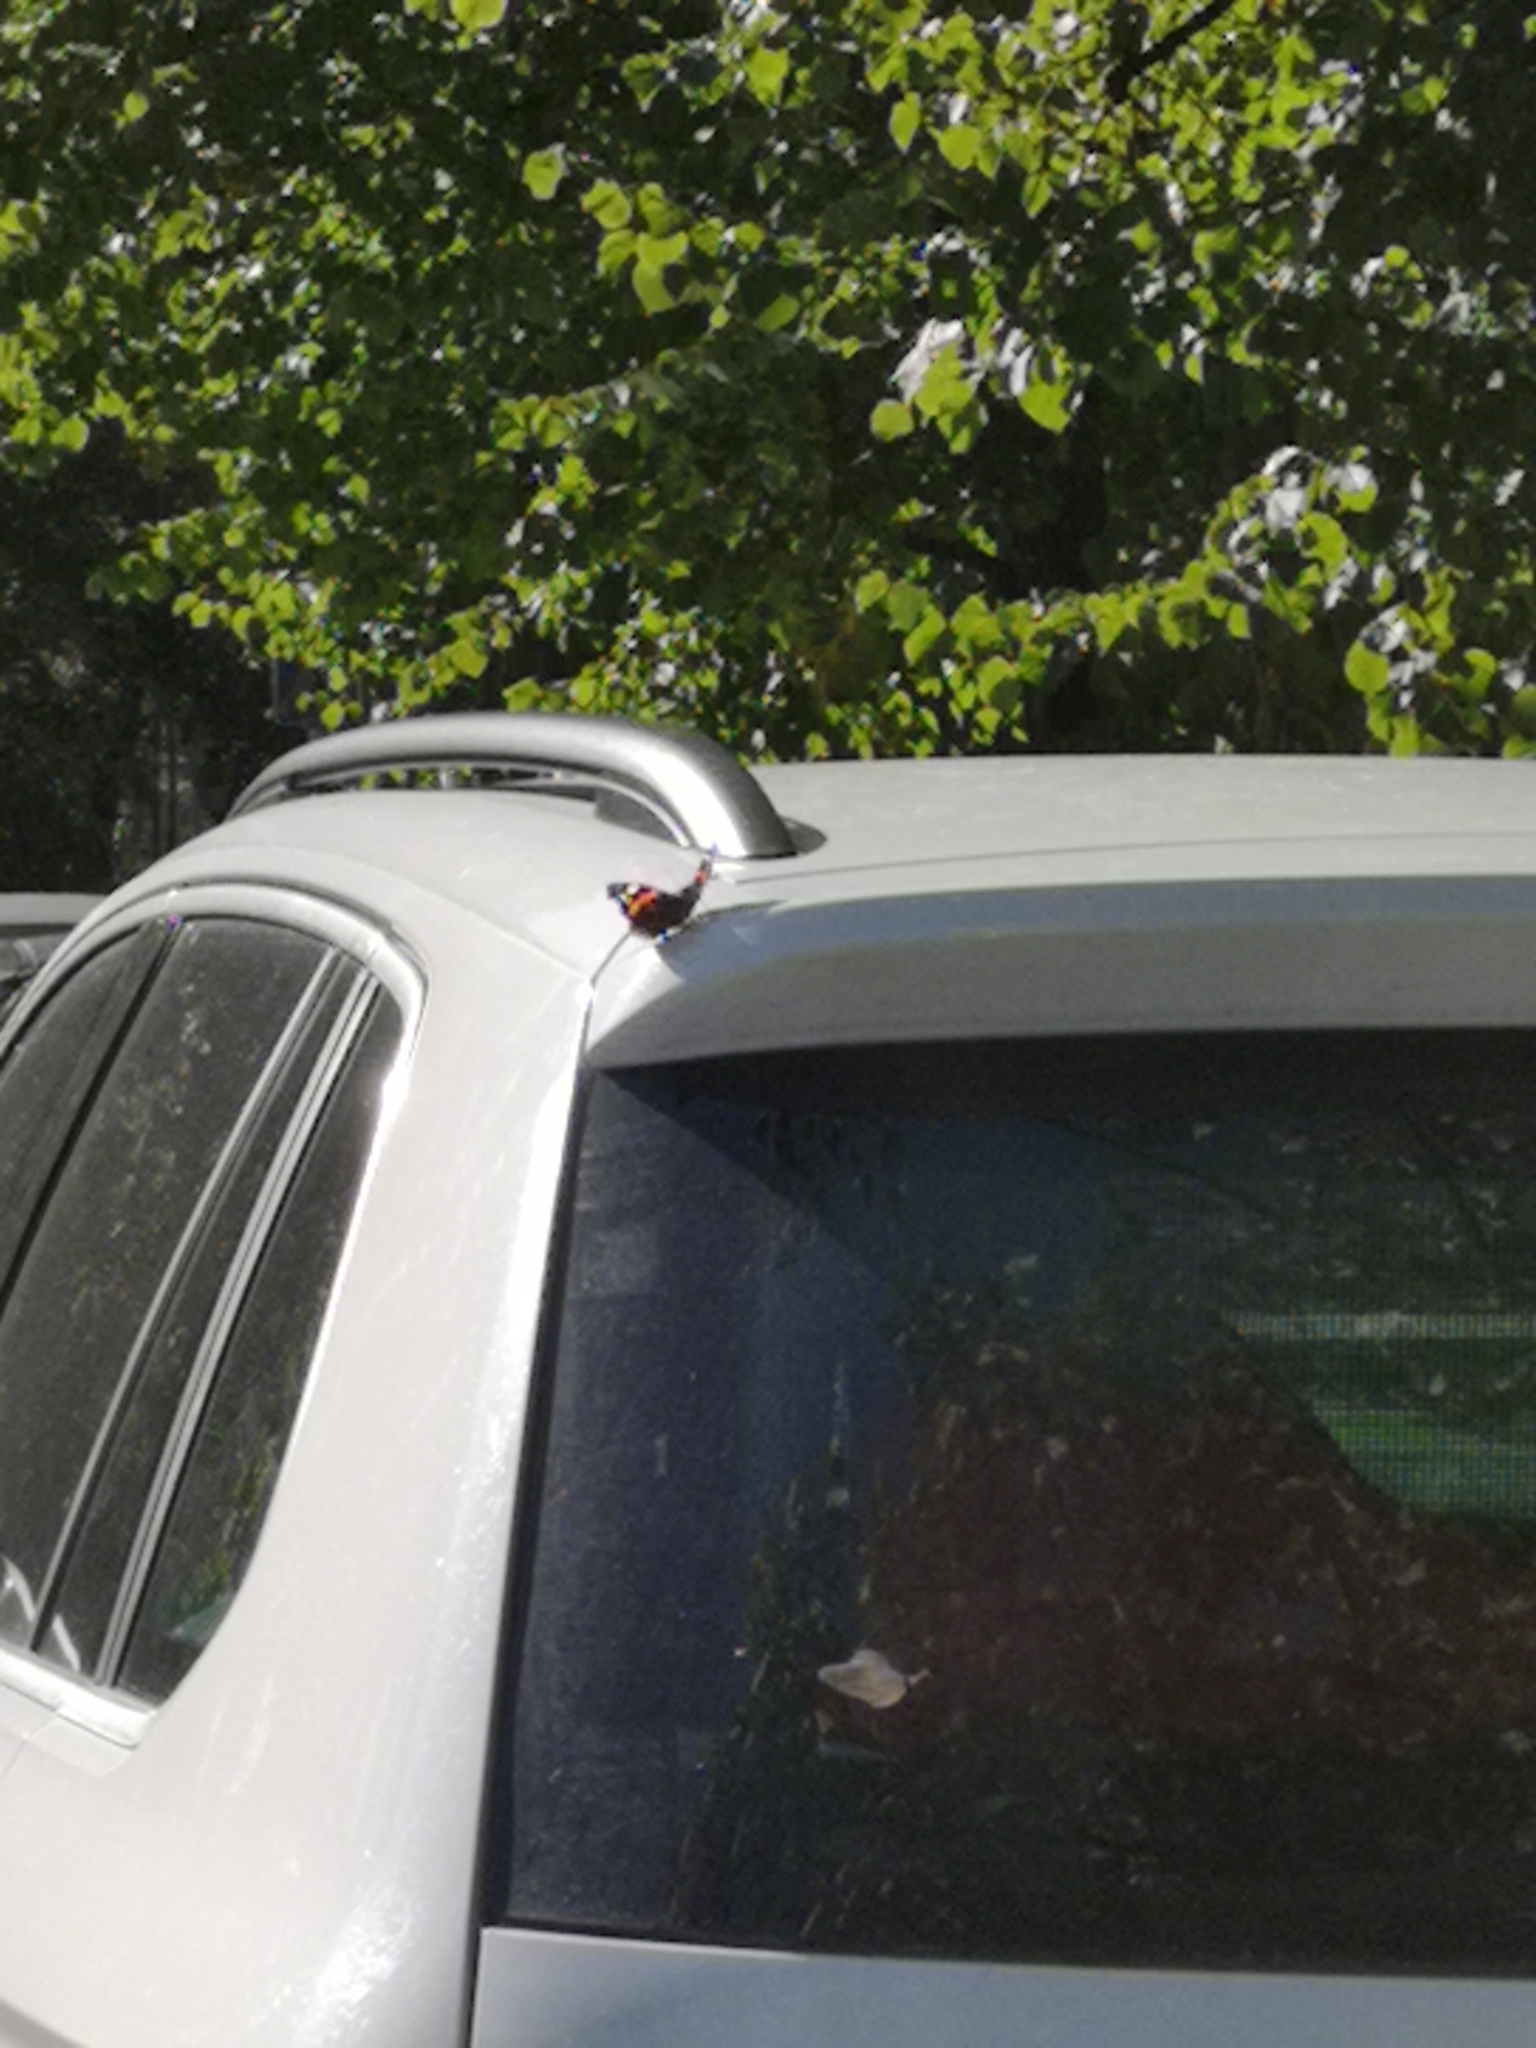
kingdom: Animalia
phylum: Arthropoda
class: Insecta
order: Lepidoptera
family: Nymphalidae
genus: Vanessa
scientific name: Vanessa atalanta
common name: Red admiral
